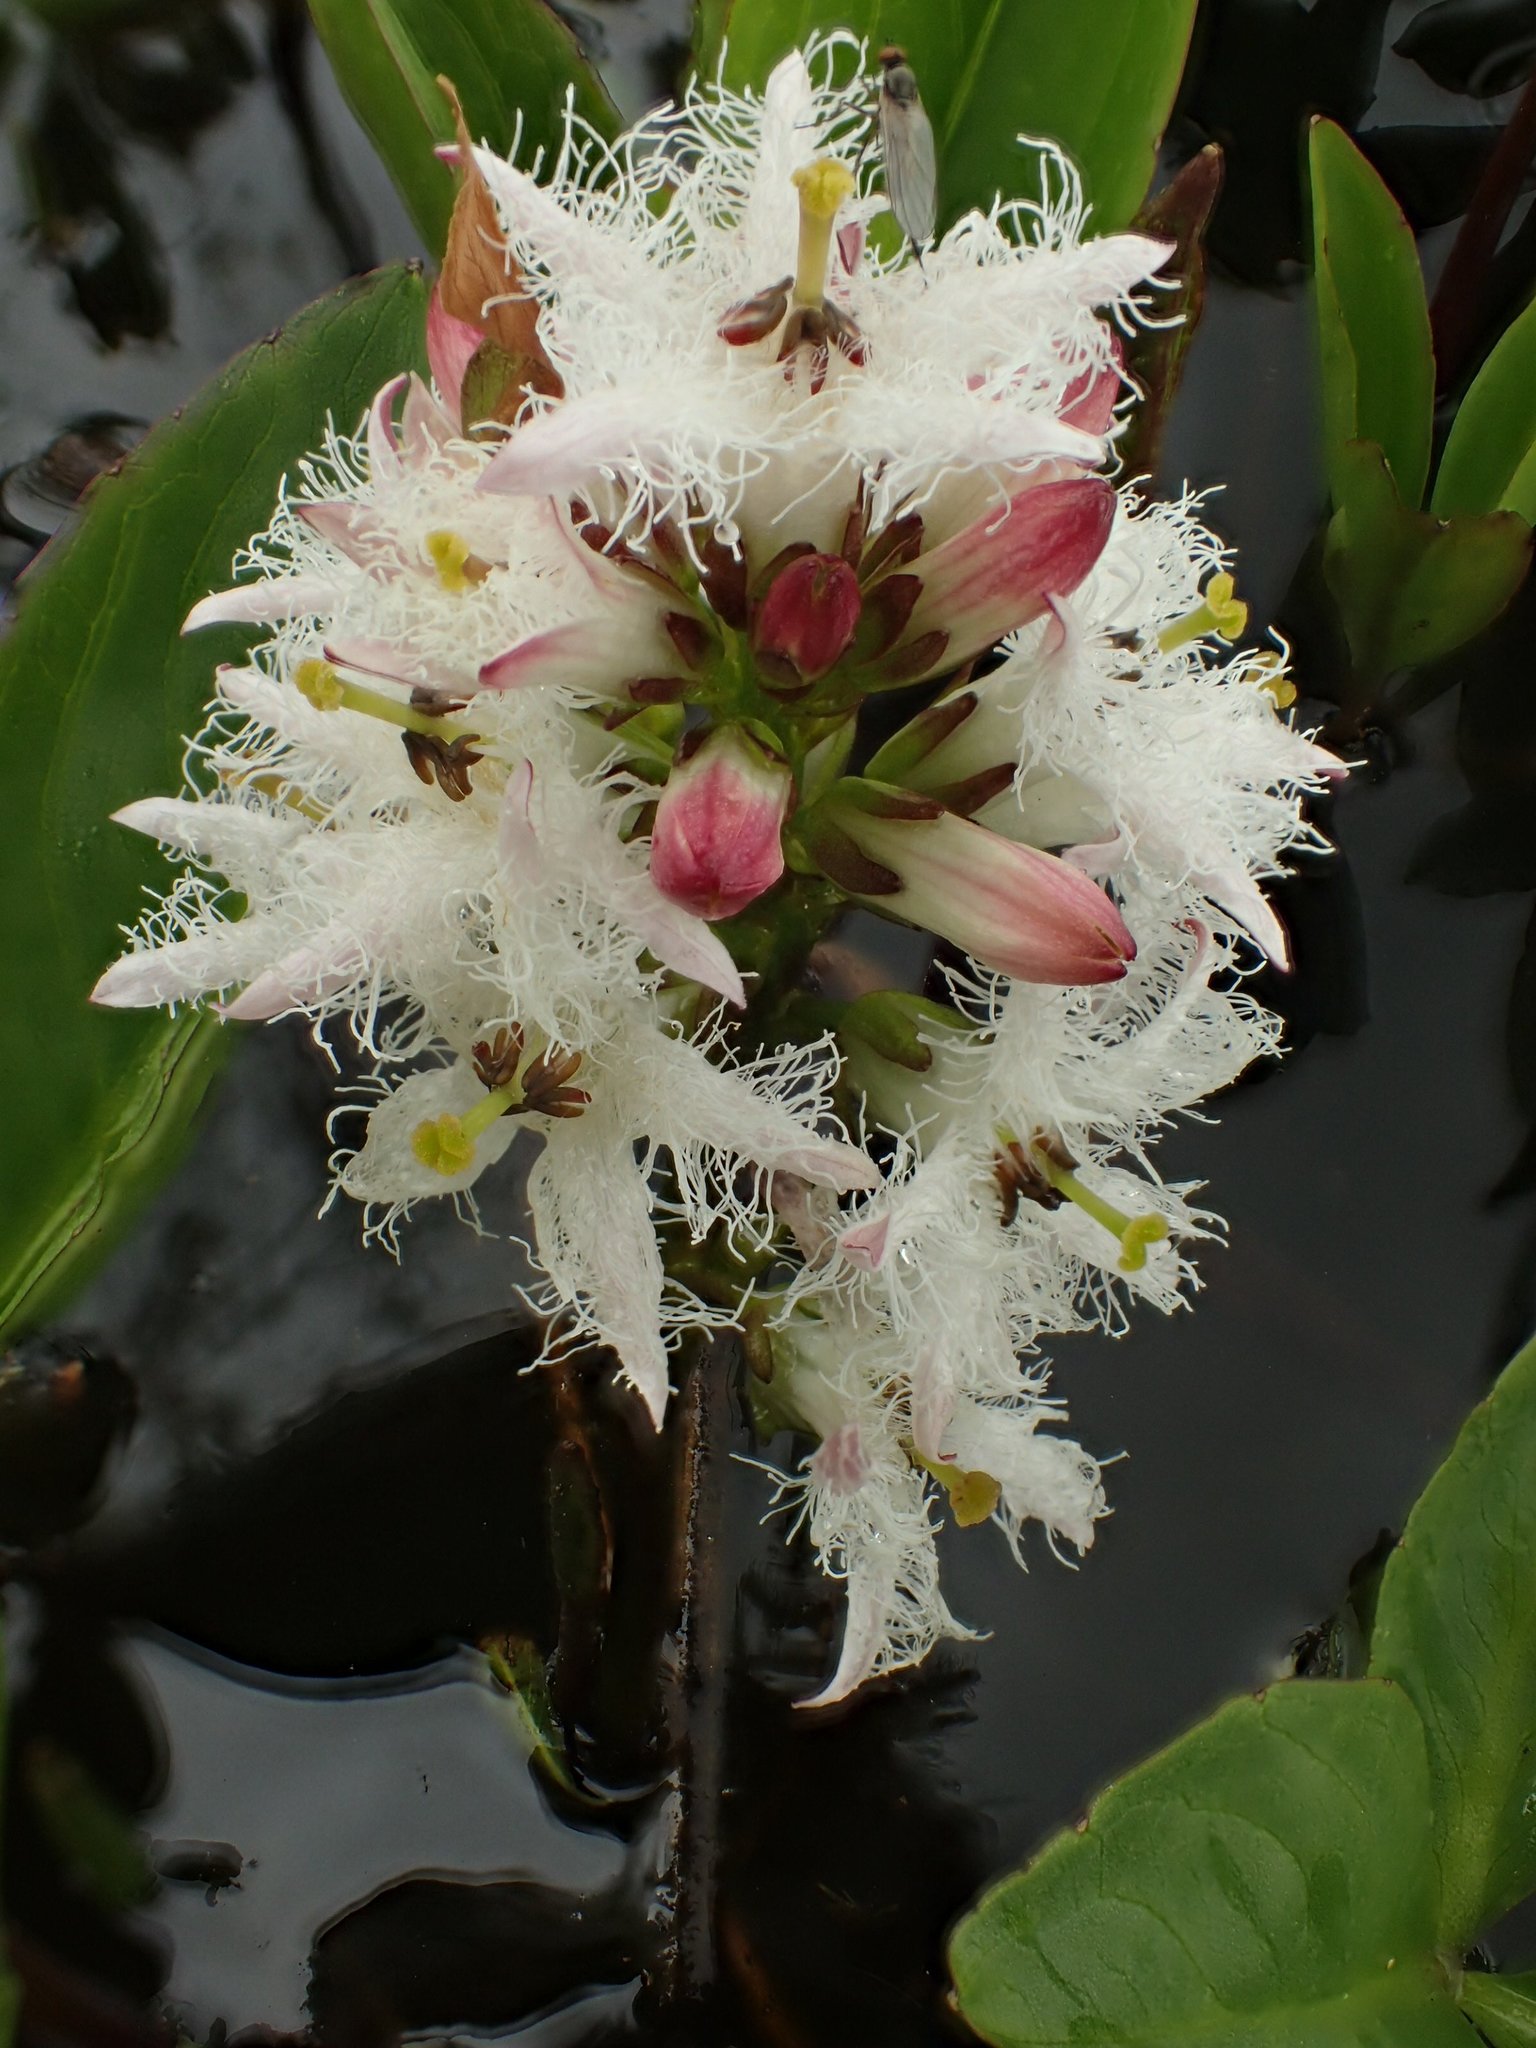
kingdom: Plantae
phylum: Tracheophyta
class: Magnoliopsida
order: Asterales
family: Menyanthaceae
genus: Menyanthes
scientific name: Menyanthes trifoliata
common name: Bogbean
